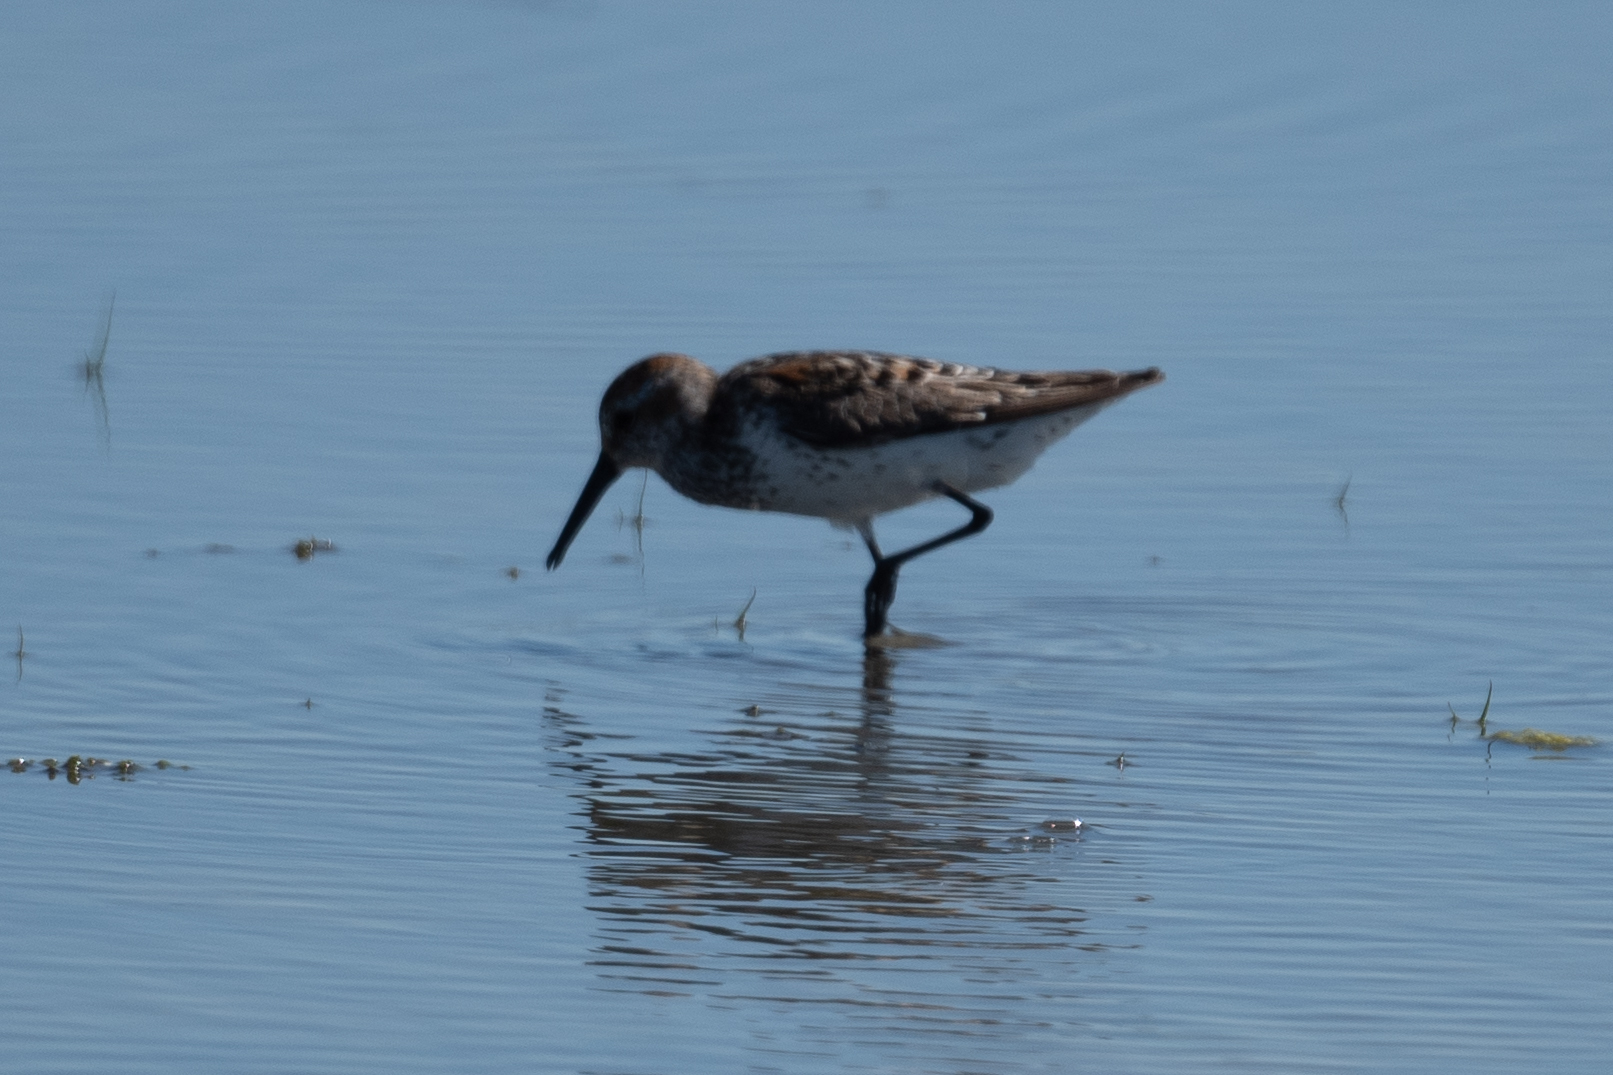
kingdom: Animalia
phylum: Chordata
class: Aves
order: Charadriiformes
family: Scolopacidae
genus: Calidris
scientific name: Calidris mauri
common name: Western sandpiper
